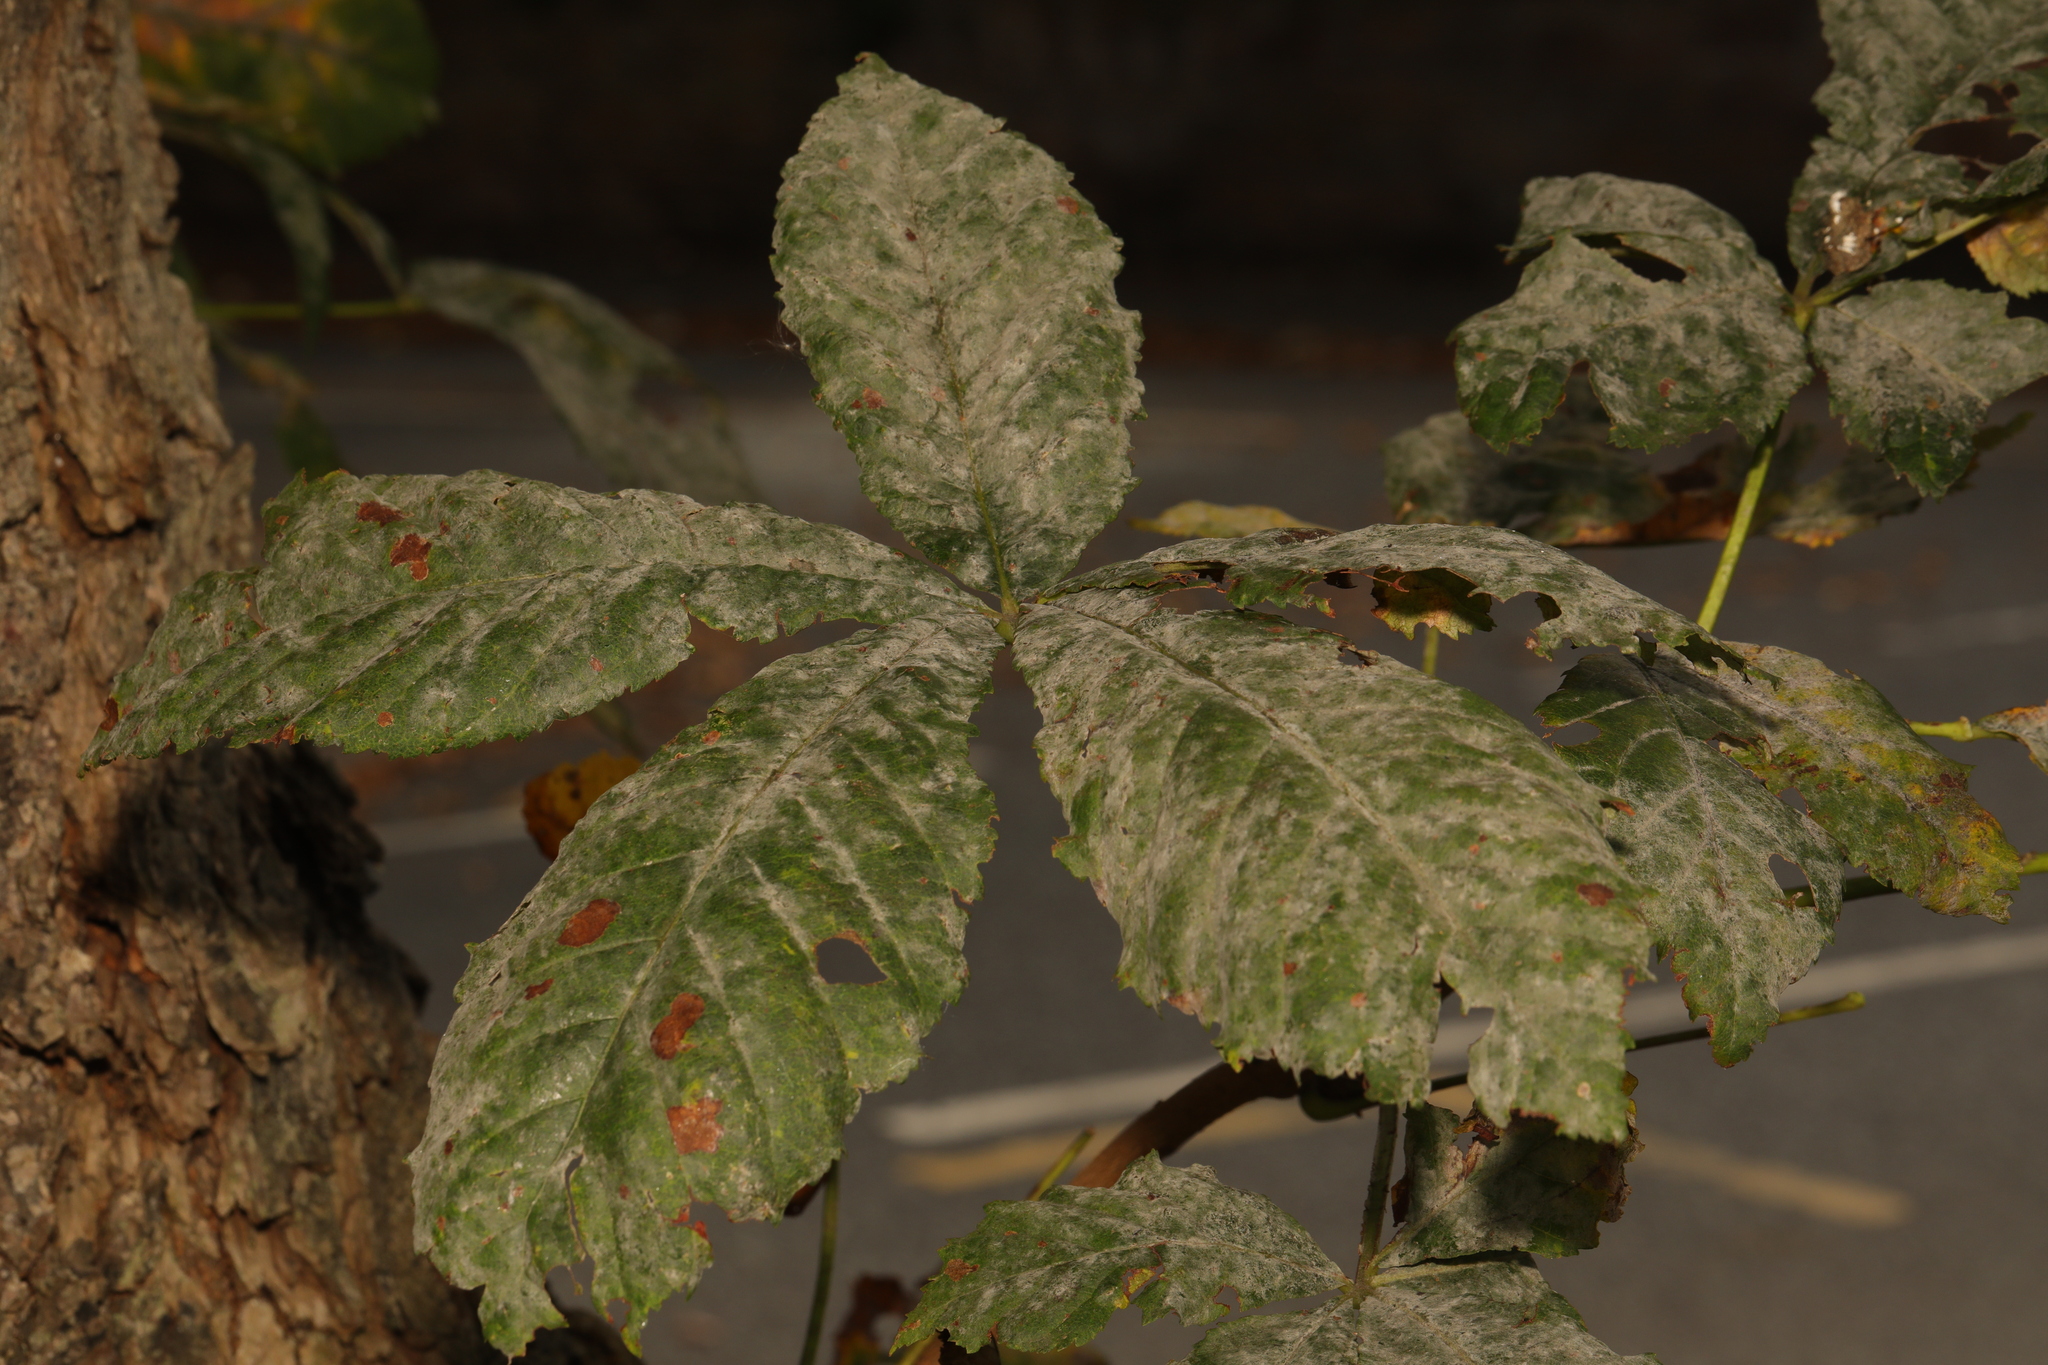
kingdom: Plantae
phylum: Tracheophyta
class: Magnoliopsida
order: Sapindales
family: Sapindaceae
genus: Aesculus
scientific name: Aesculus hippocastanum
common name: Horse-chestnut
